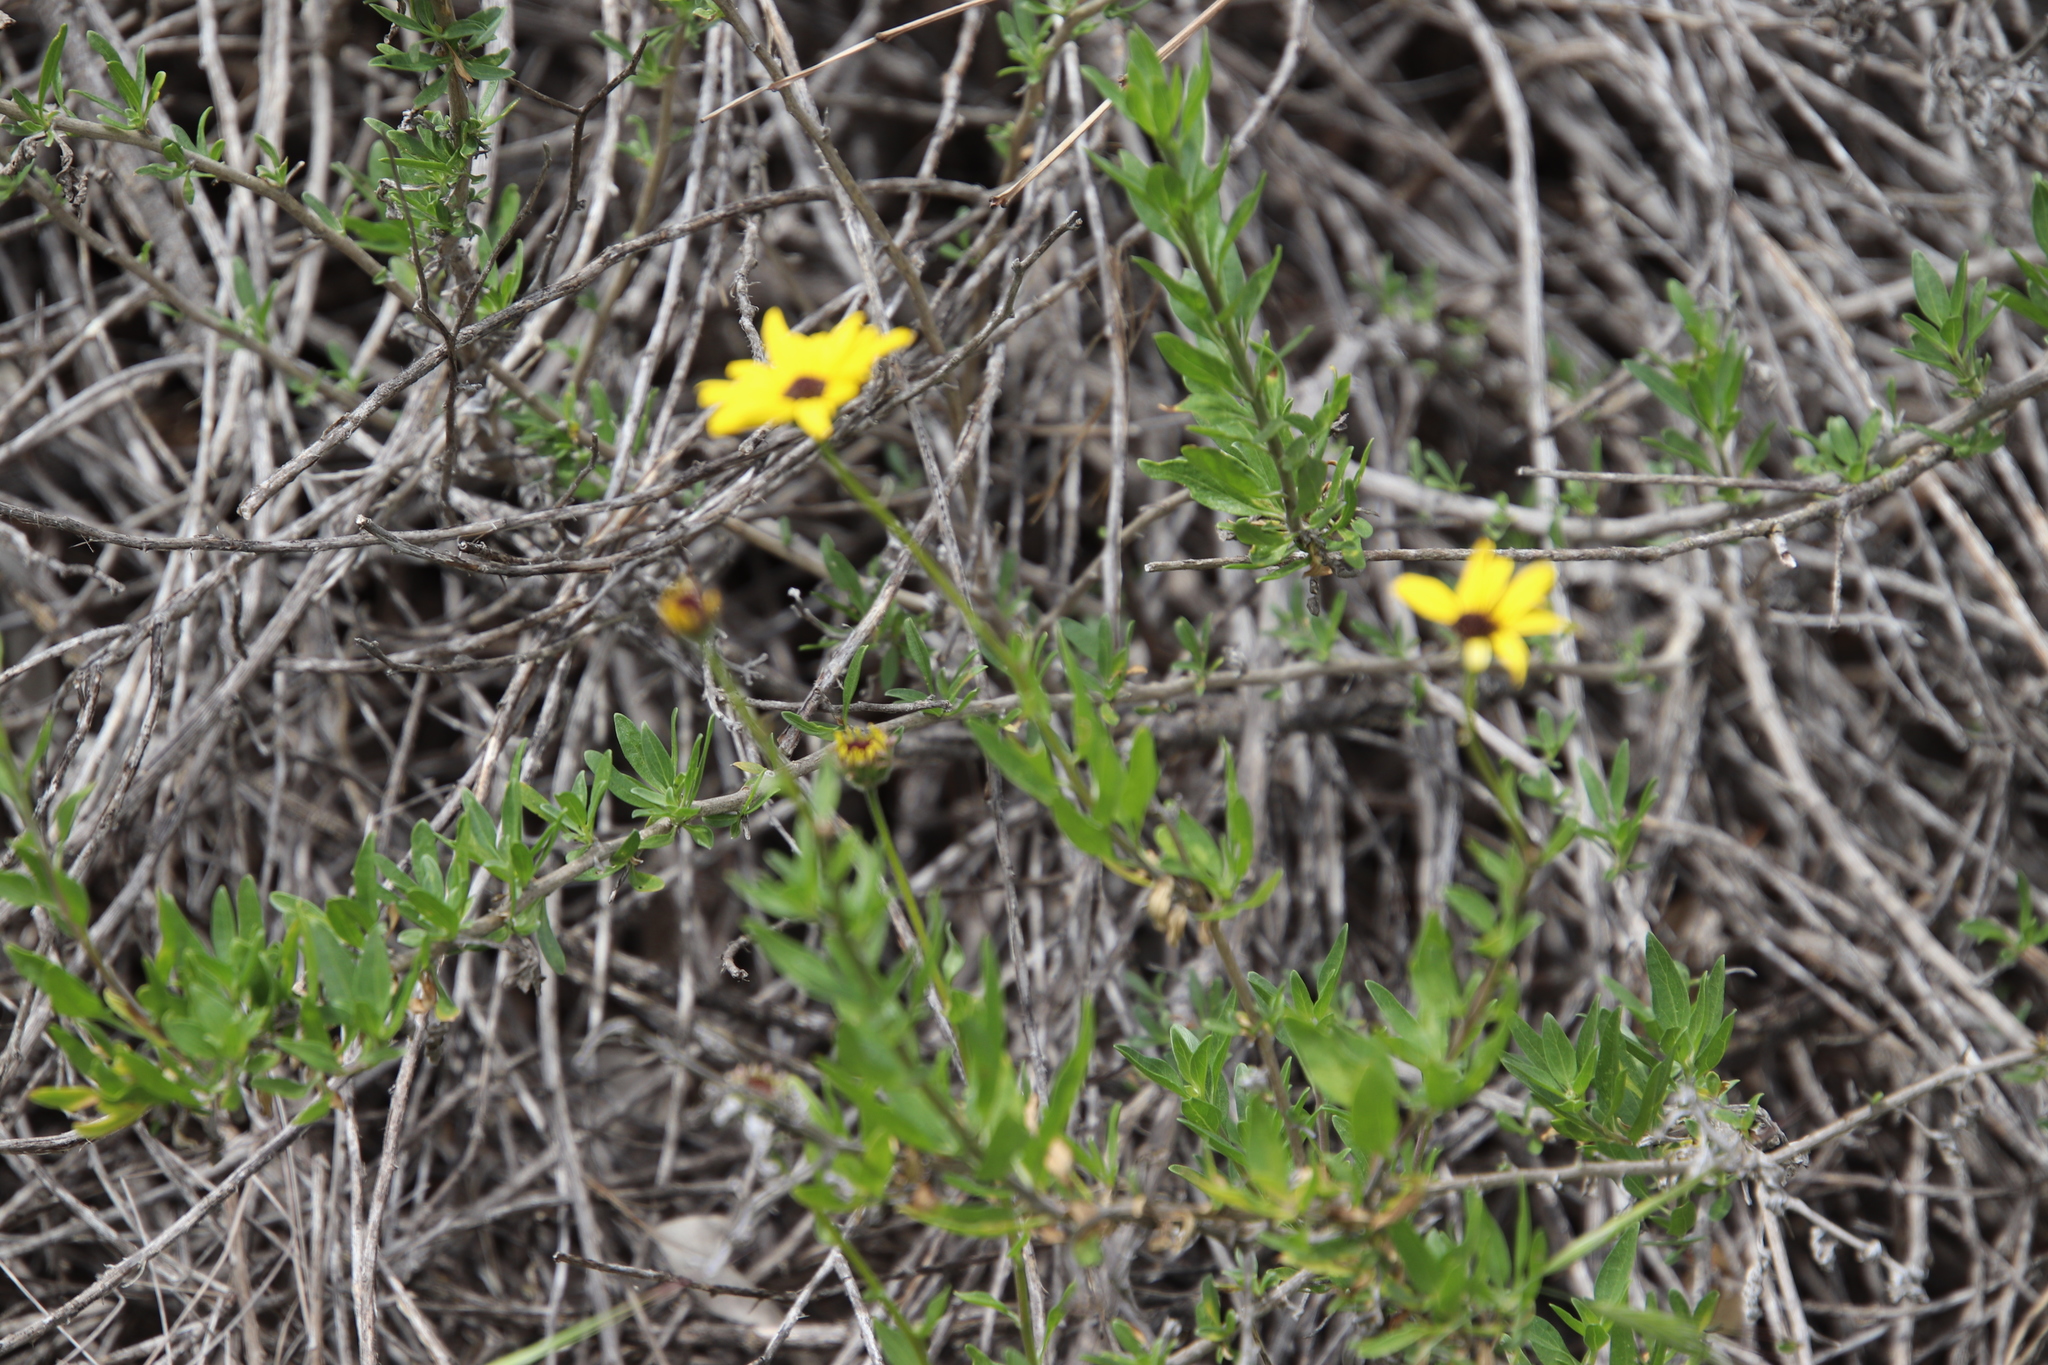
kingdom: Plantae
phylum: Tracheophyta
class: Magnoliopsida
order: Asterales
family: Asteraceae
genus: Encelia
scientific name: Encelia californica
